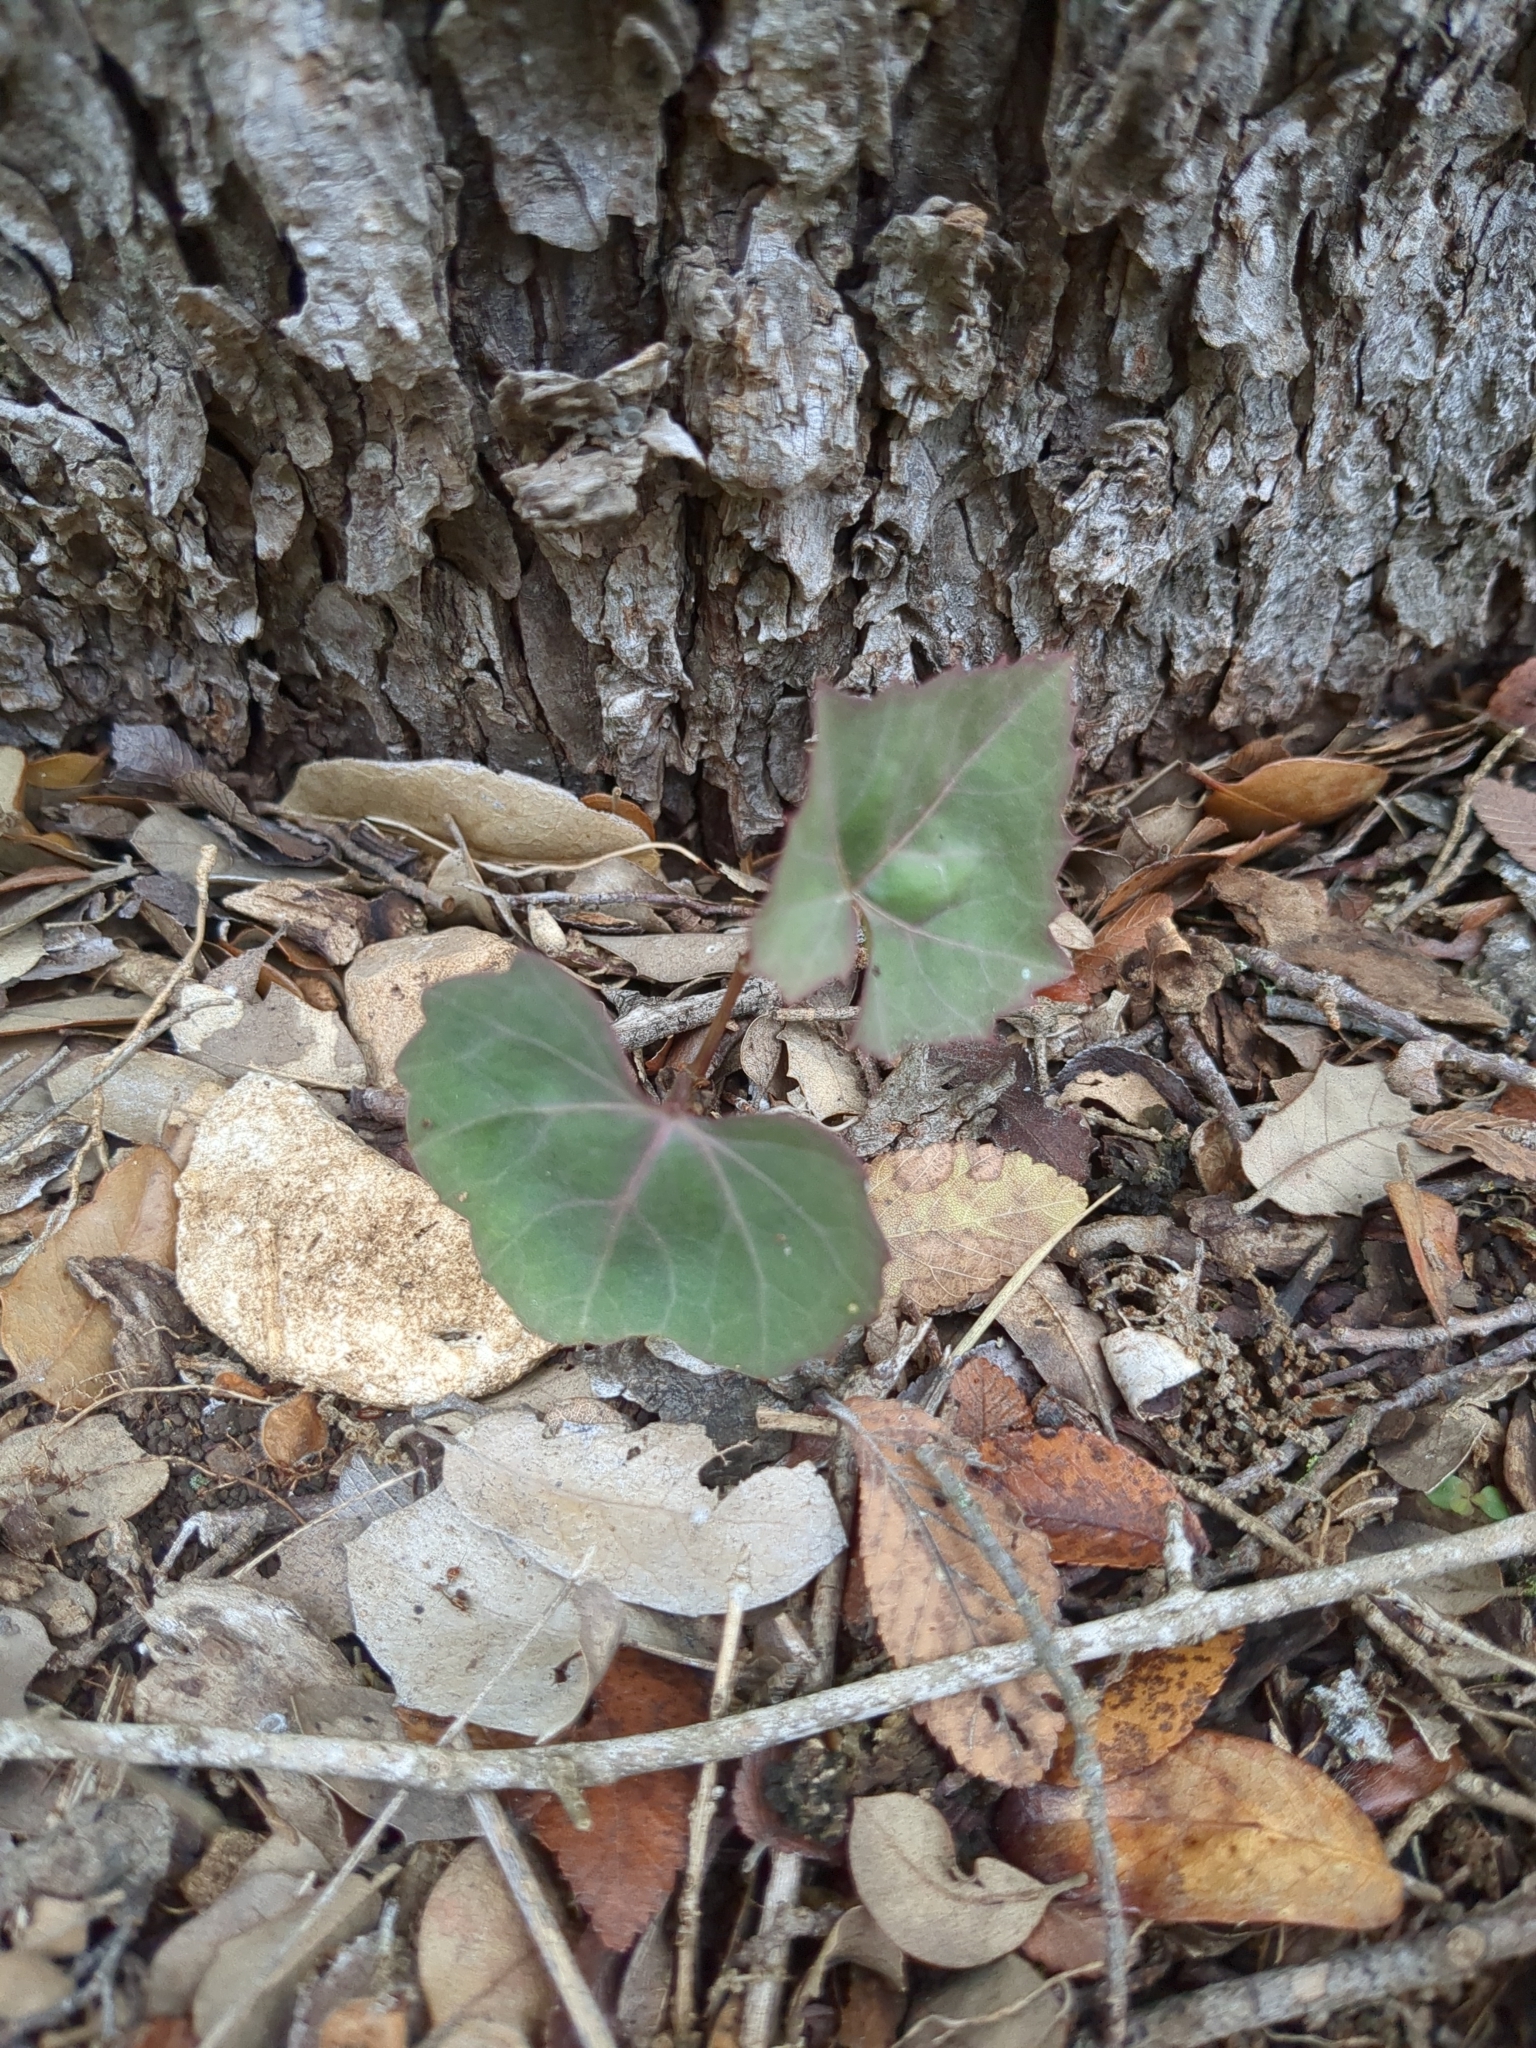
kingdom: Plantae
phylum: Tracheophyta
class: Magnoliopsida
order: Vitales
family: Vitaceae
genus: Cissus
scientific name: Cissus trifoliata
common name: Vine-sorrel
